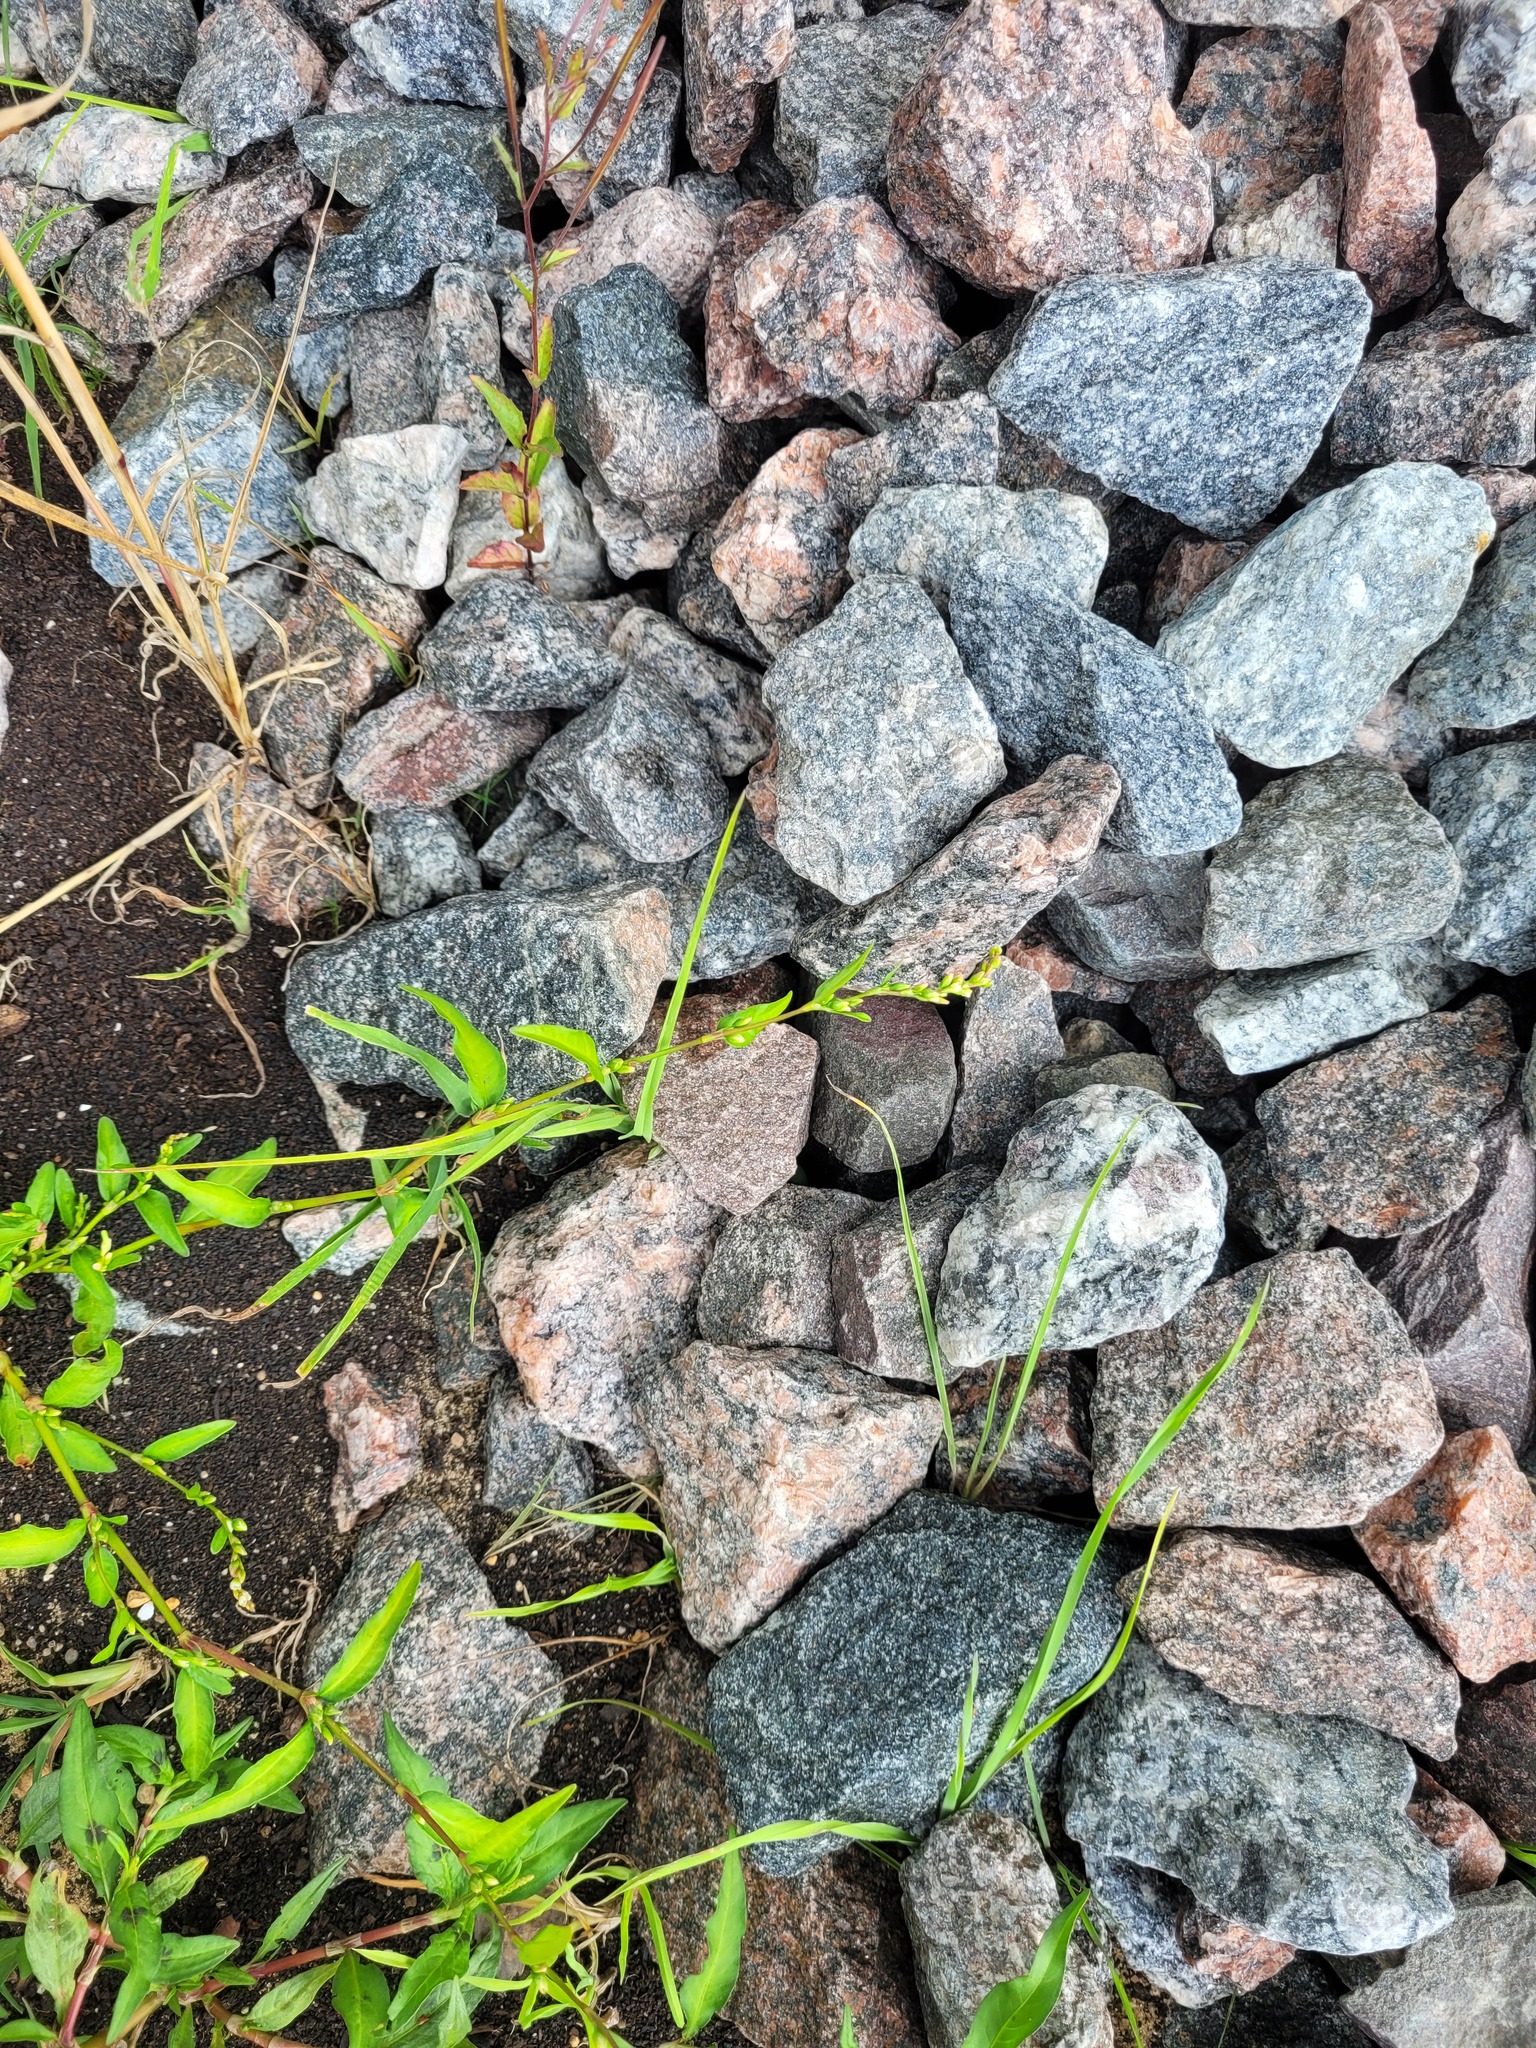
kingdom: Plantae
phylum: Tracheophyta
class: Magnoliopsida
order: Caryophyllales
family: Polygonaceae
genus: Persicaria
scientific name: Persicaria hydropiper
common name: Water-pepper
